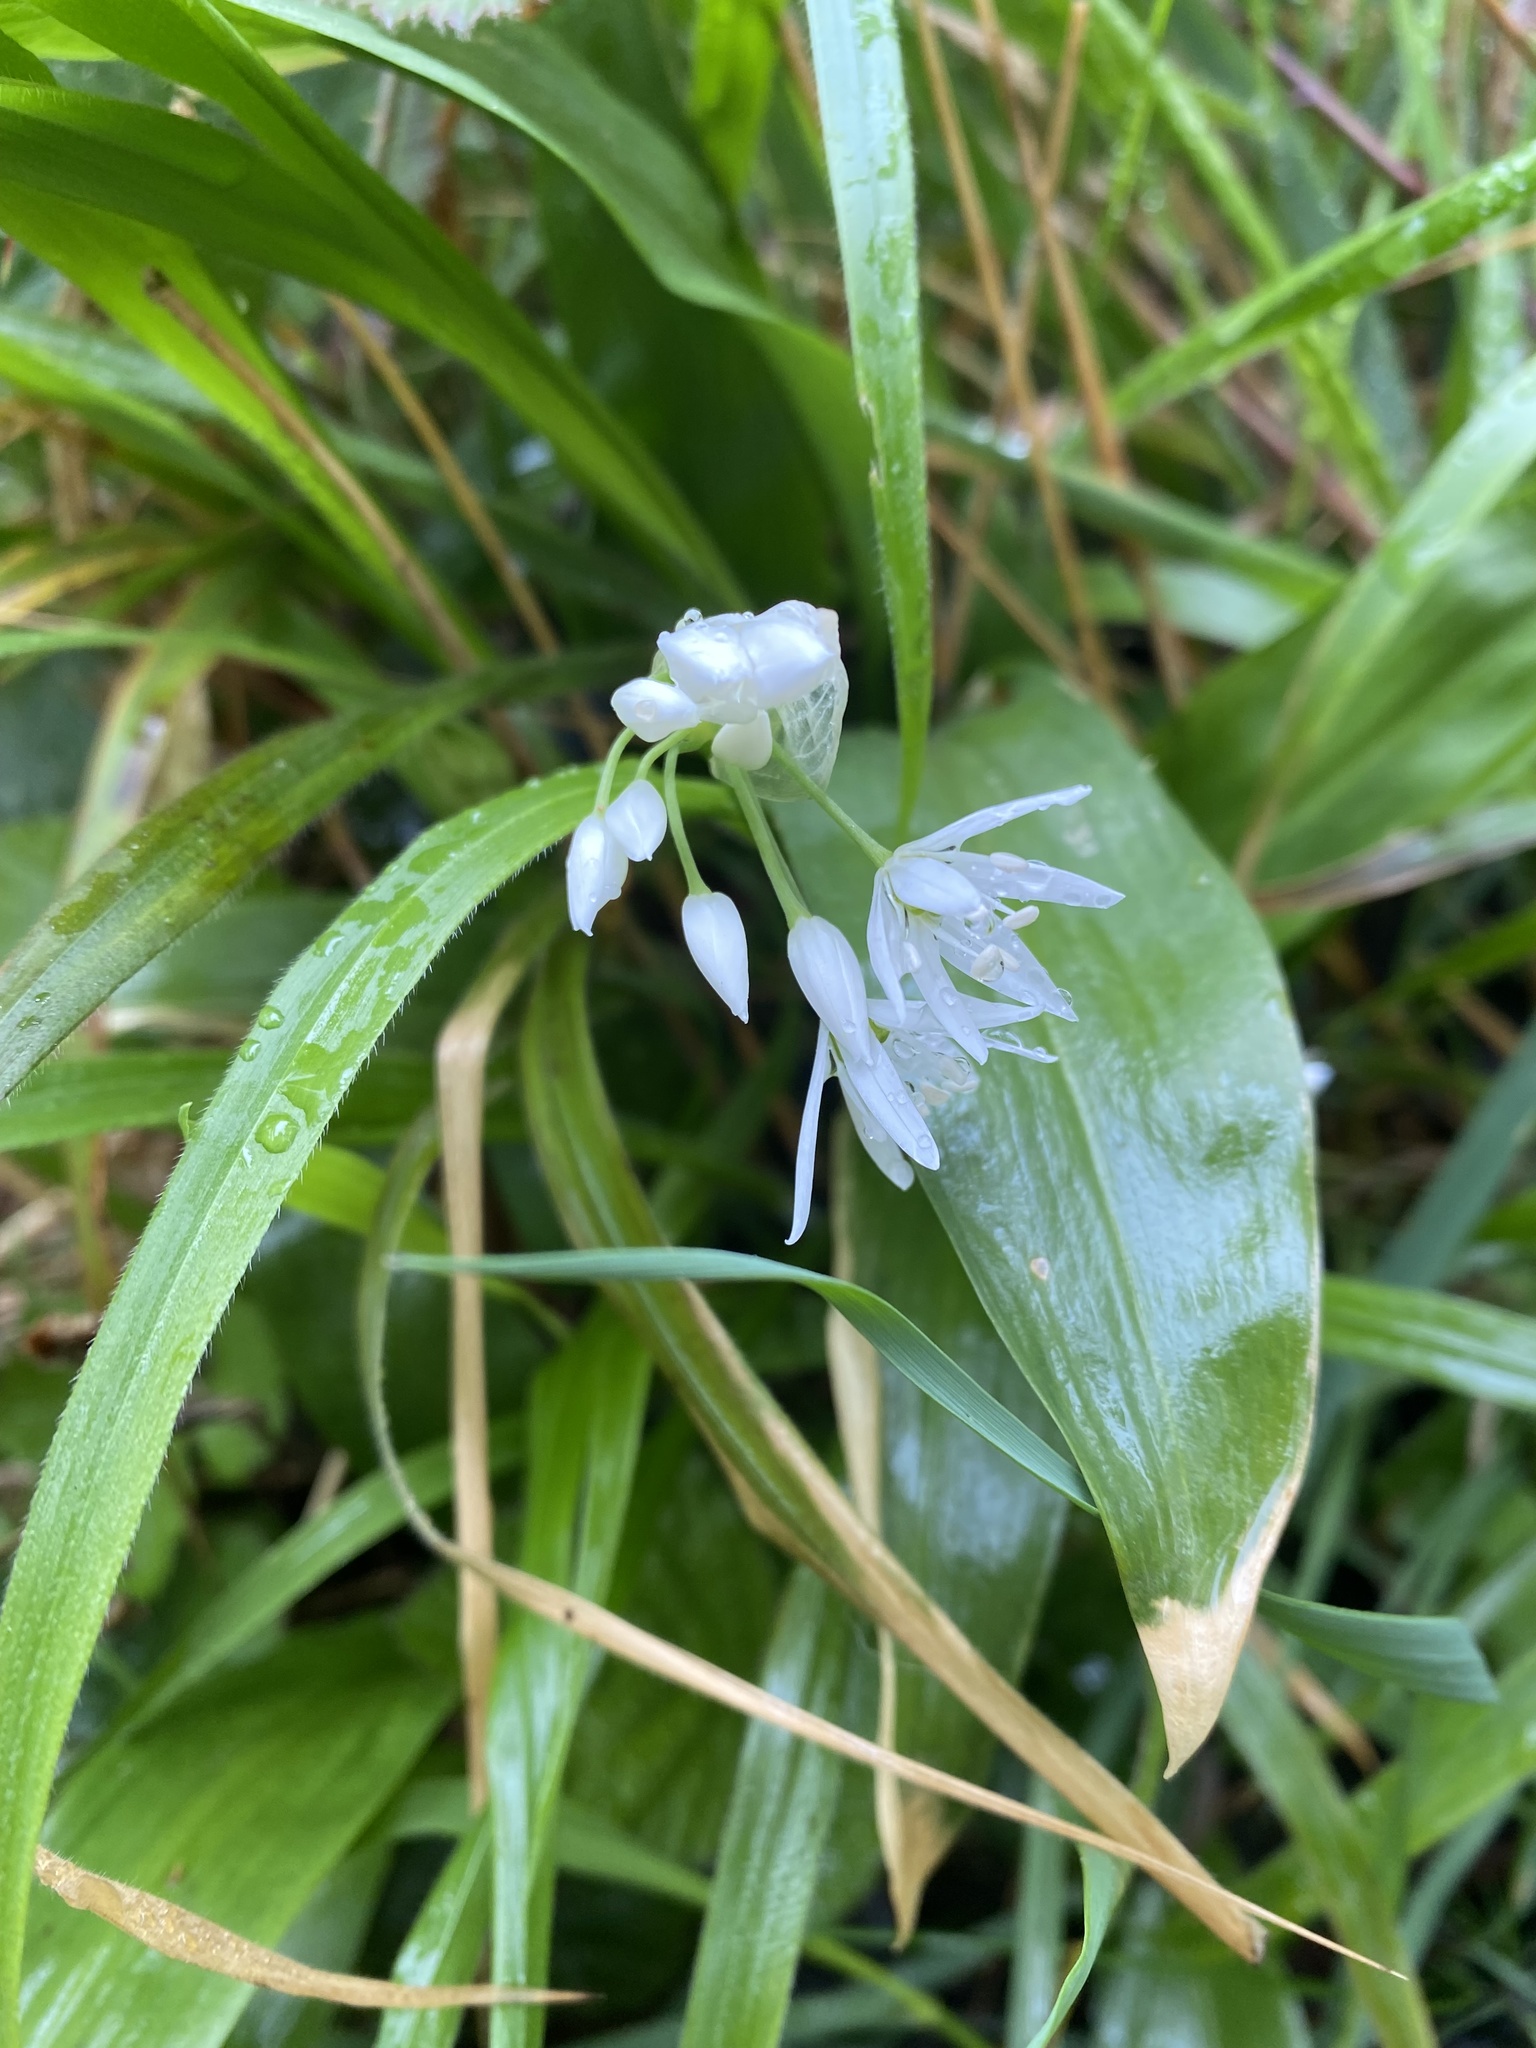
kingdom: Plantae
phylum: Tracheophyta
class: Liliopsida
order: Asparagales
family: Amaryllidaceae
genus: Allium
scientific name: Allium ursinum
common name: Ramsons
